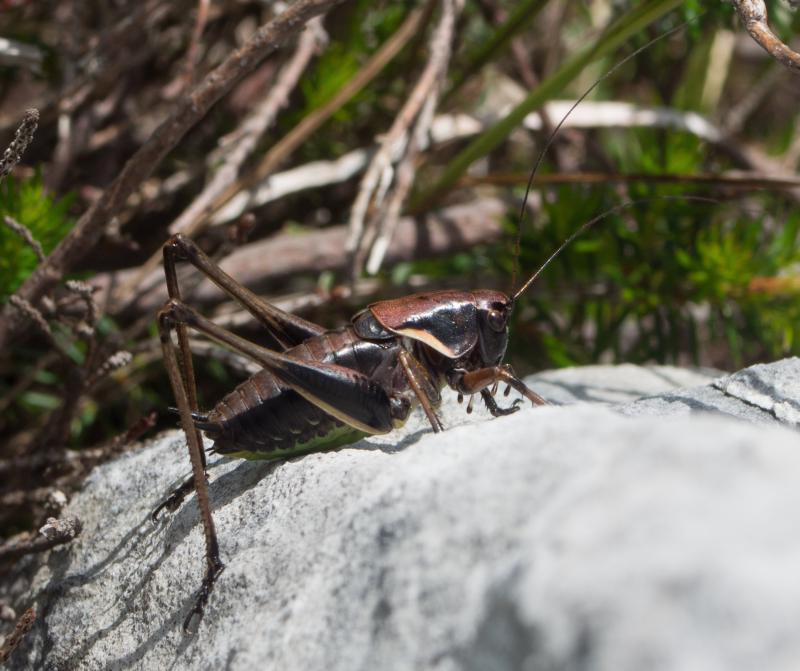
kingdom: Animalia
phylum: Arthropoda
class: Insecta
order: Orthoptera
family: Tettigoniidae
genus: Pholidoptera
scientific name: Pholidoptera aptera
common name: Alpine dark bush-cricket
